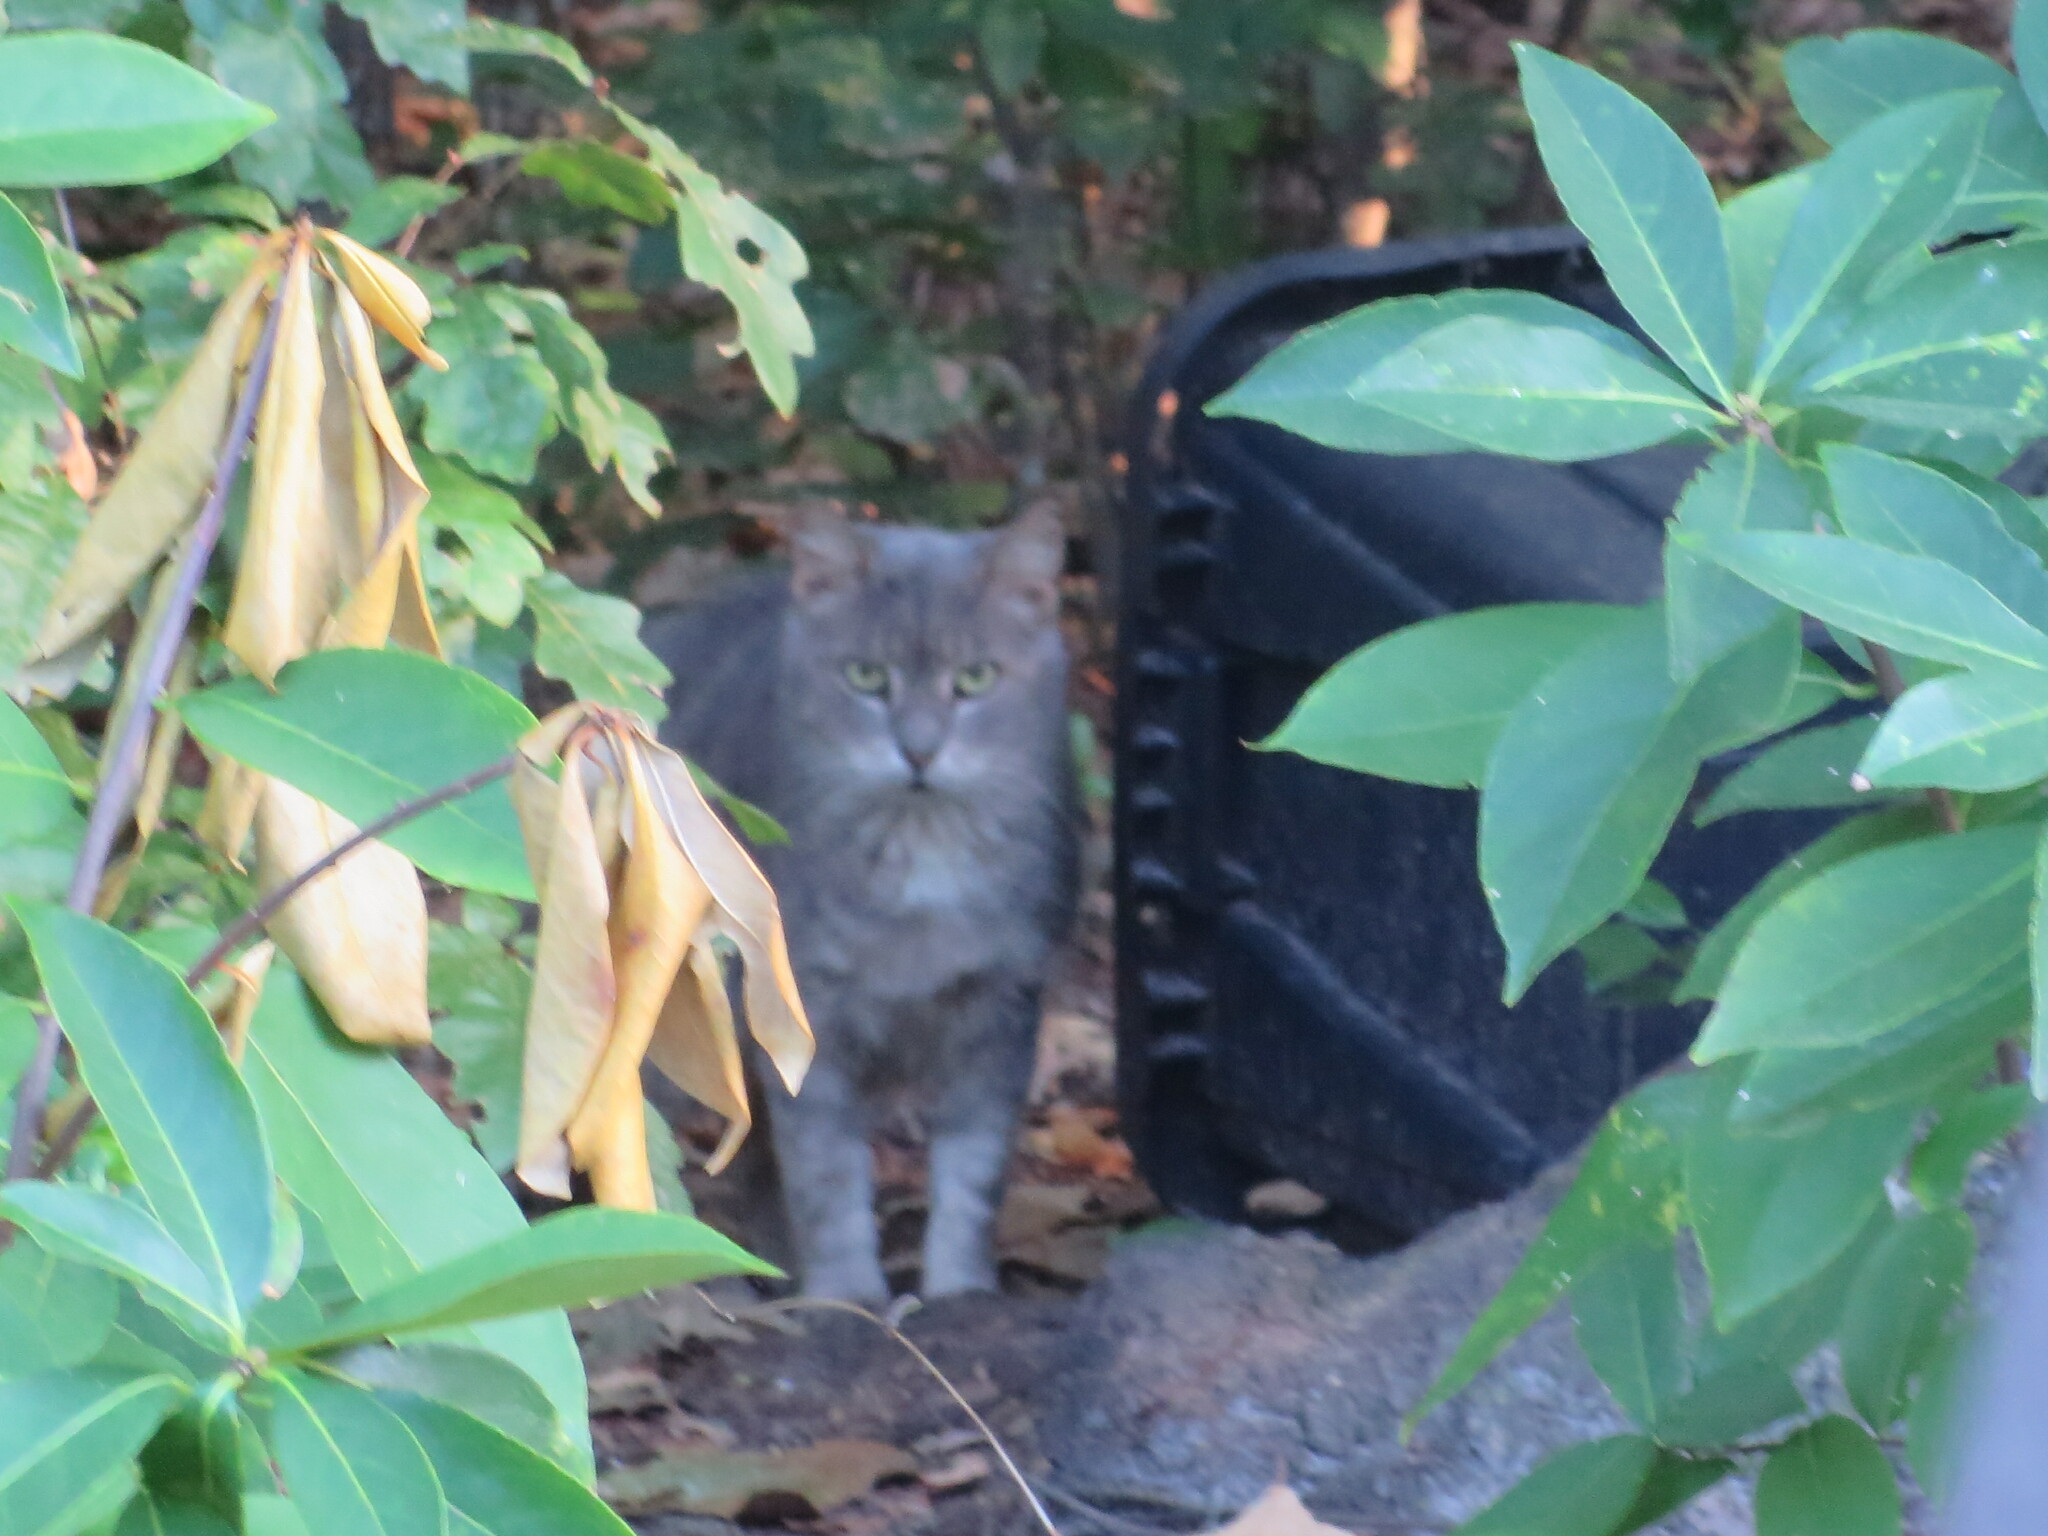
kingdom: Animalia
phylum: Chordata
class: Mammalia
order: Carnivora
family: Felidae
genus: Felis
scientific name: Felis catus
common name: Domestic cat
